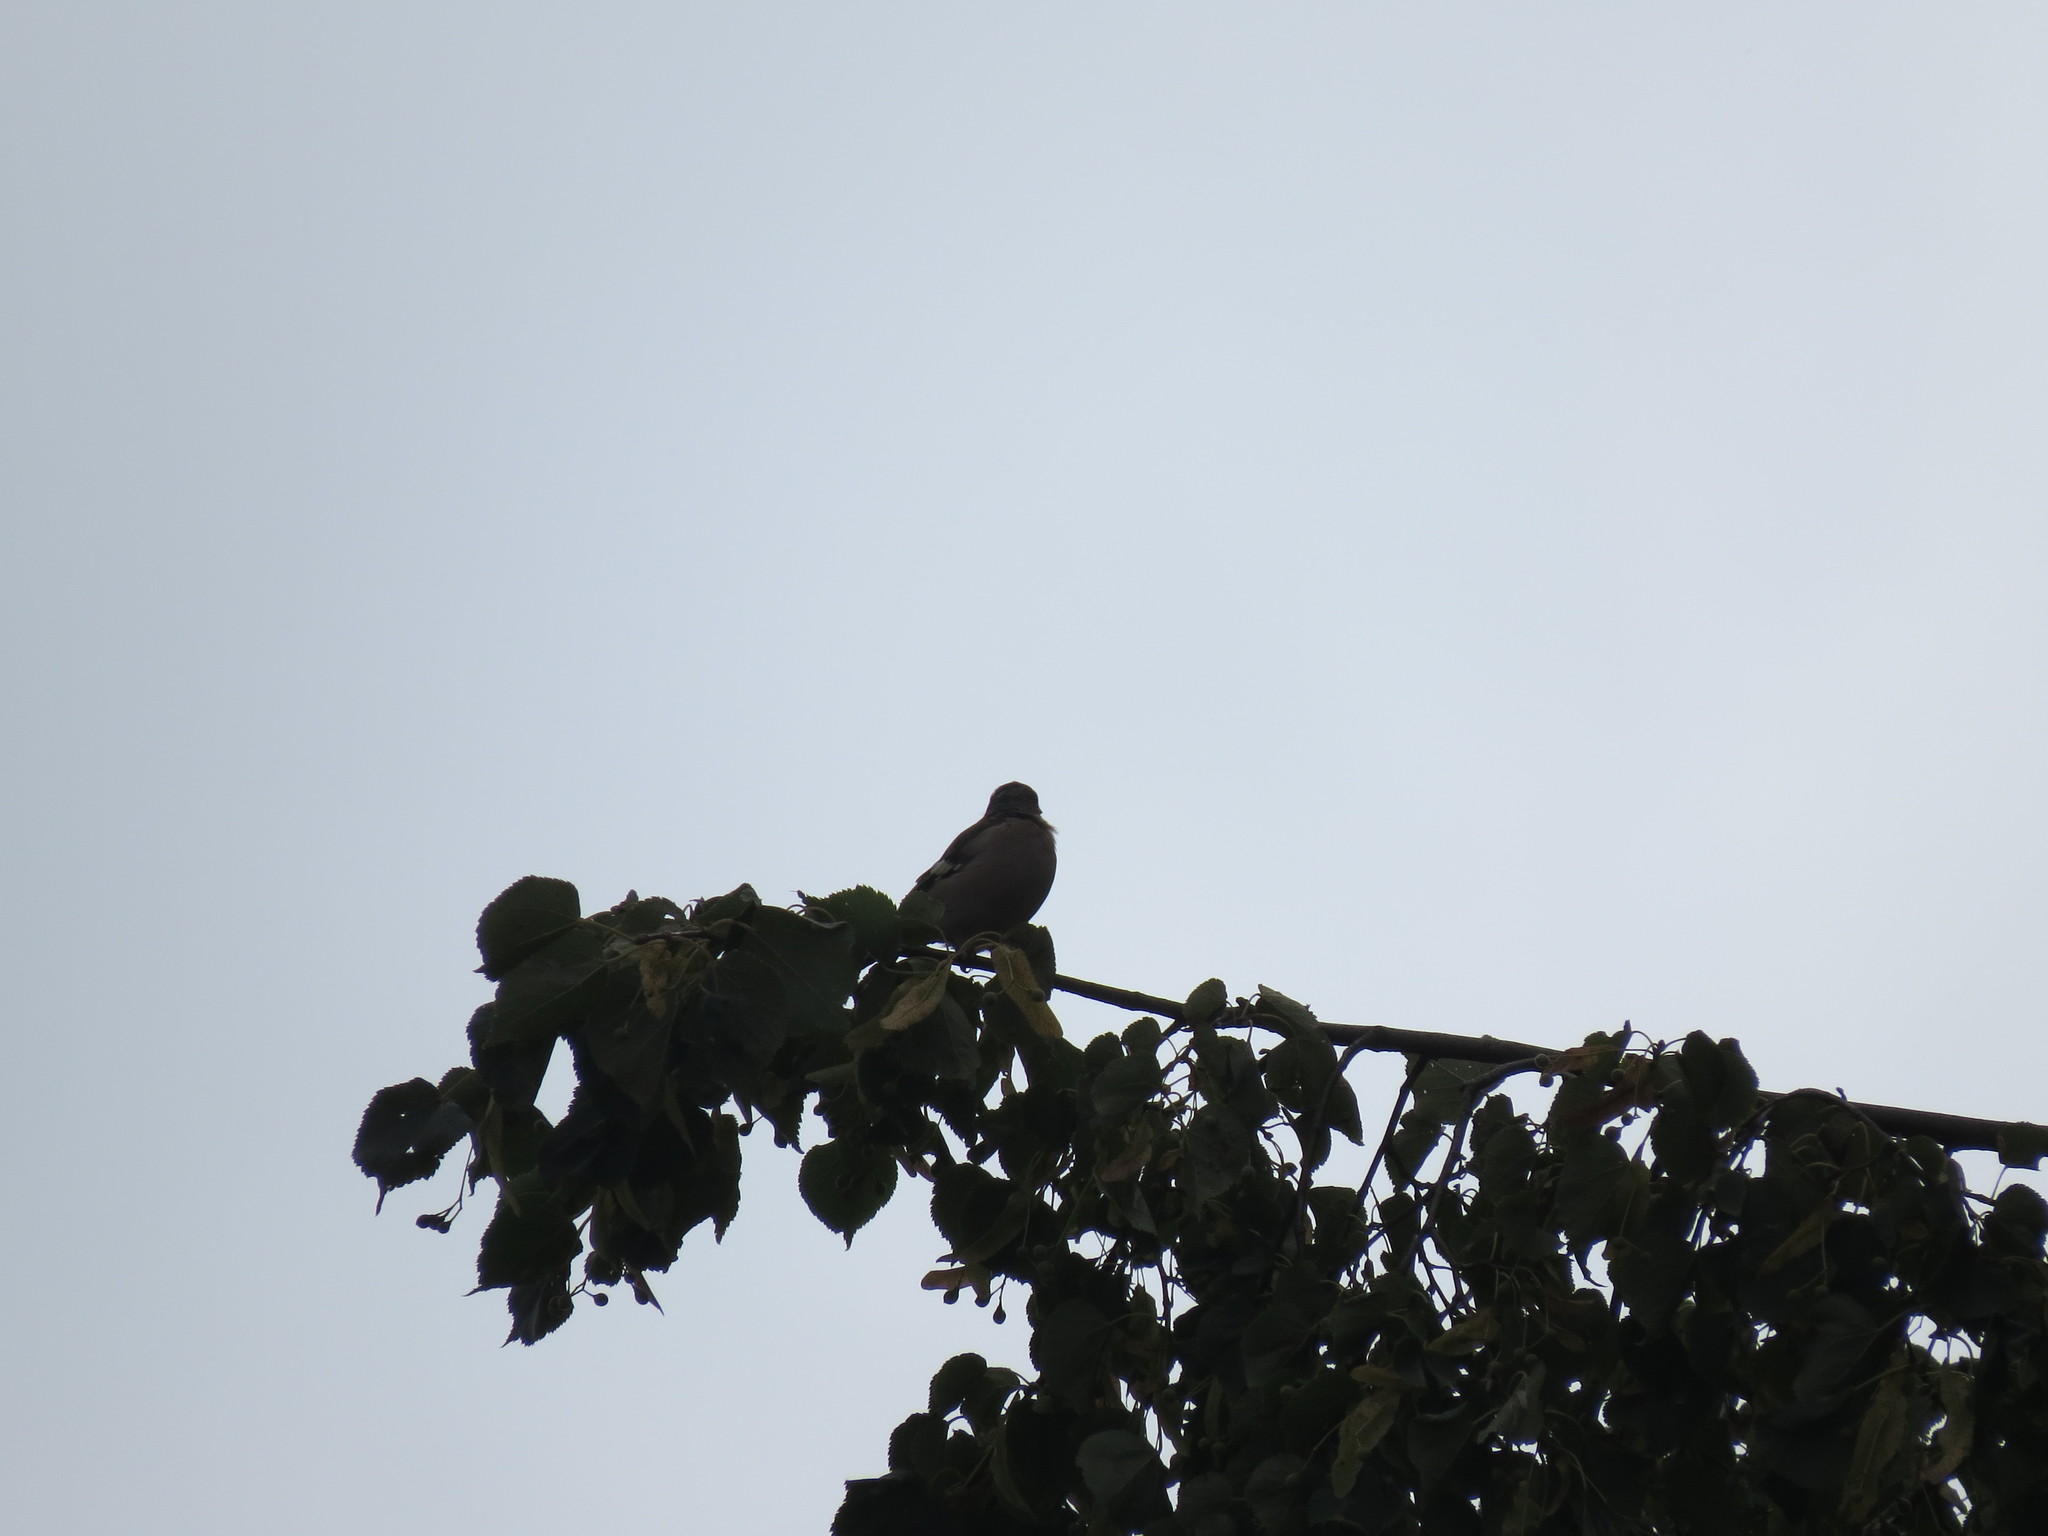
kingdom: Animalia
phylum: Chordata
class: Aves
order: Passeriformes
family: Fringillidae
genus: Fringilla
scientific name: Fringilla coelebs
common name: Common chaffinch
